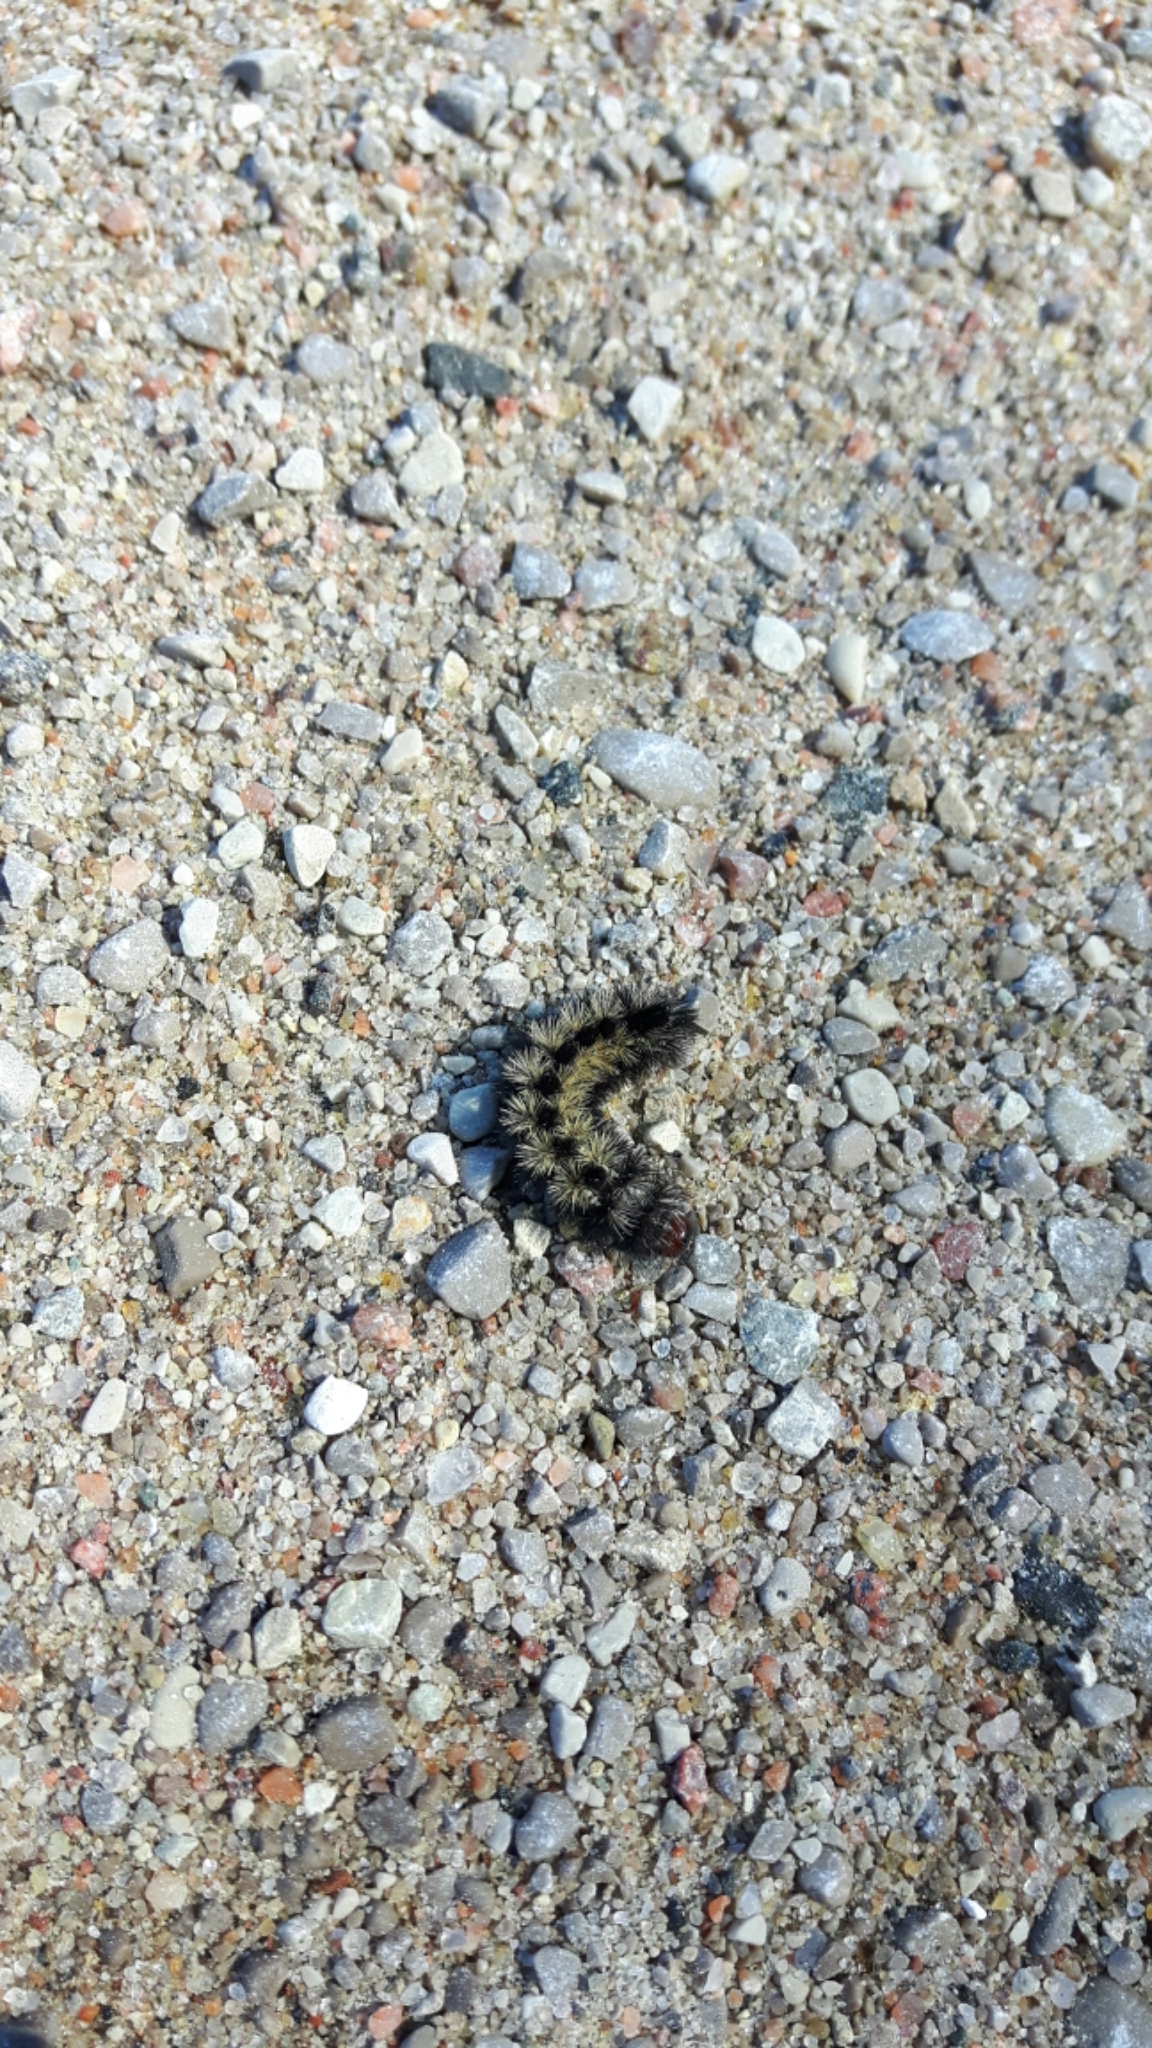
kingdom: Animalia
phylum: Arthropoda
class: Insecta
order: Lepidoptera
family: Erebidae
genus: Ctenucha
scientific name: Ctenucha virginica
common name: Virginia ctenucha moth
